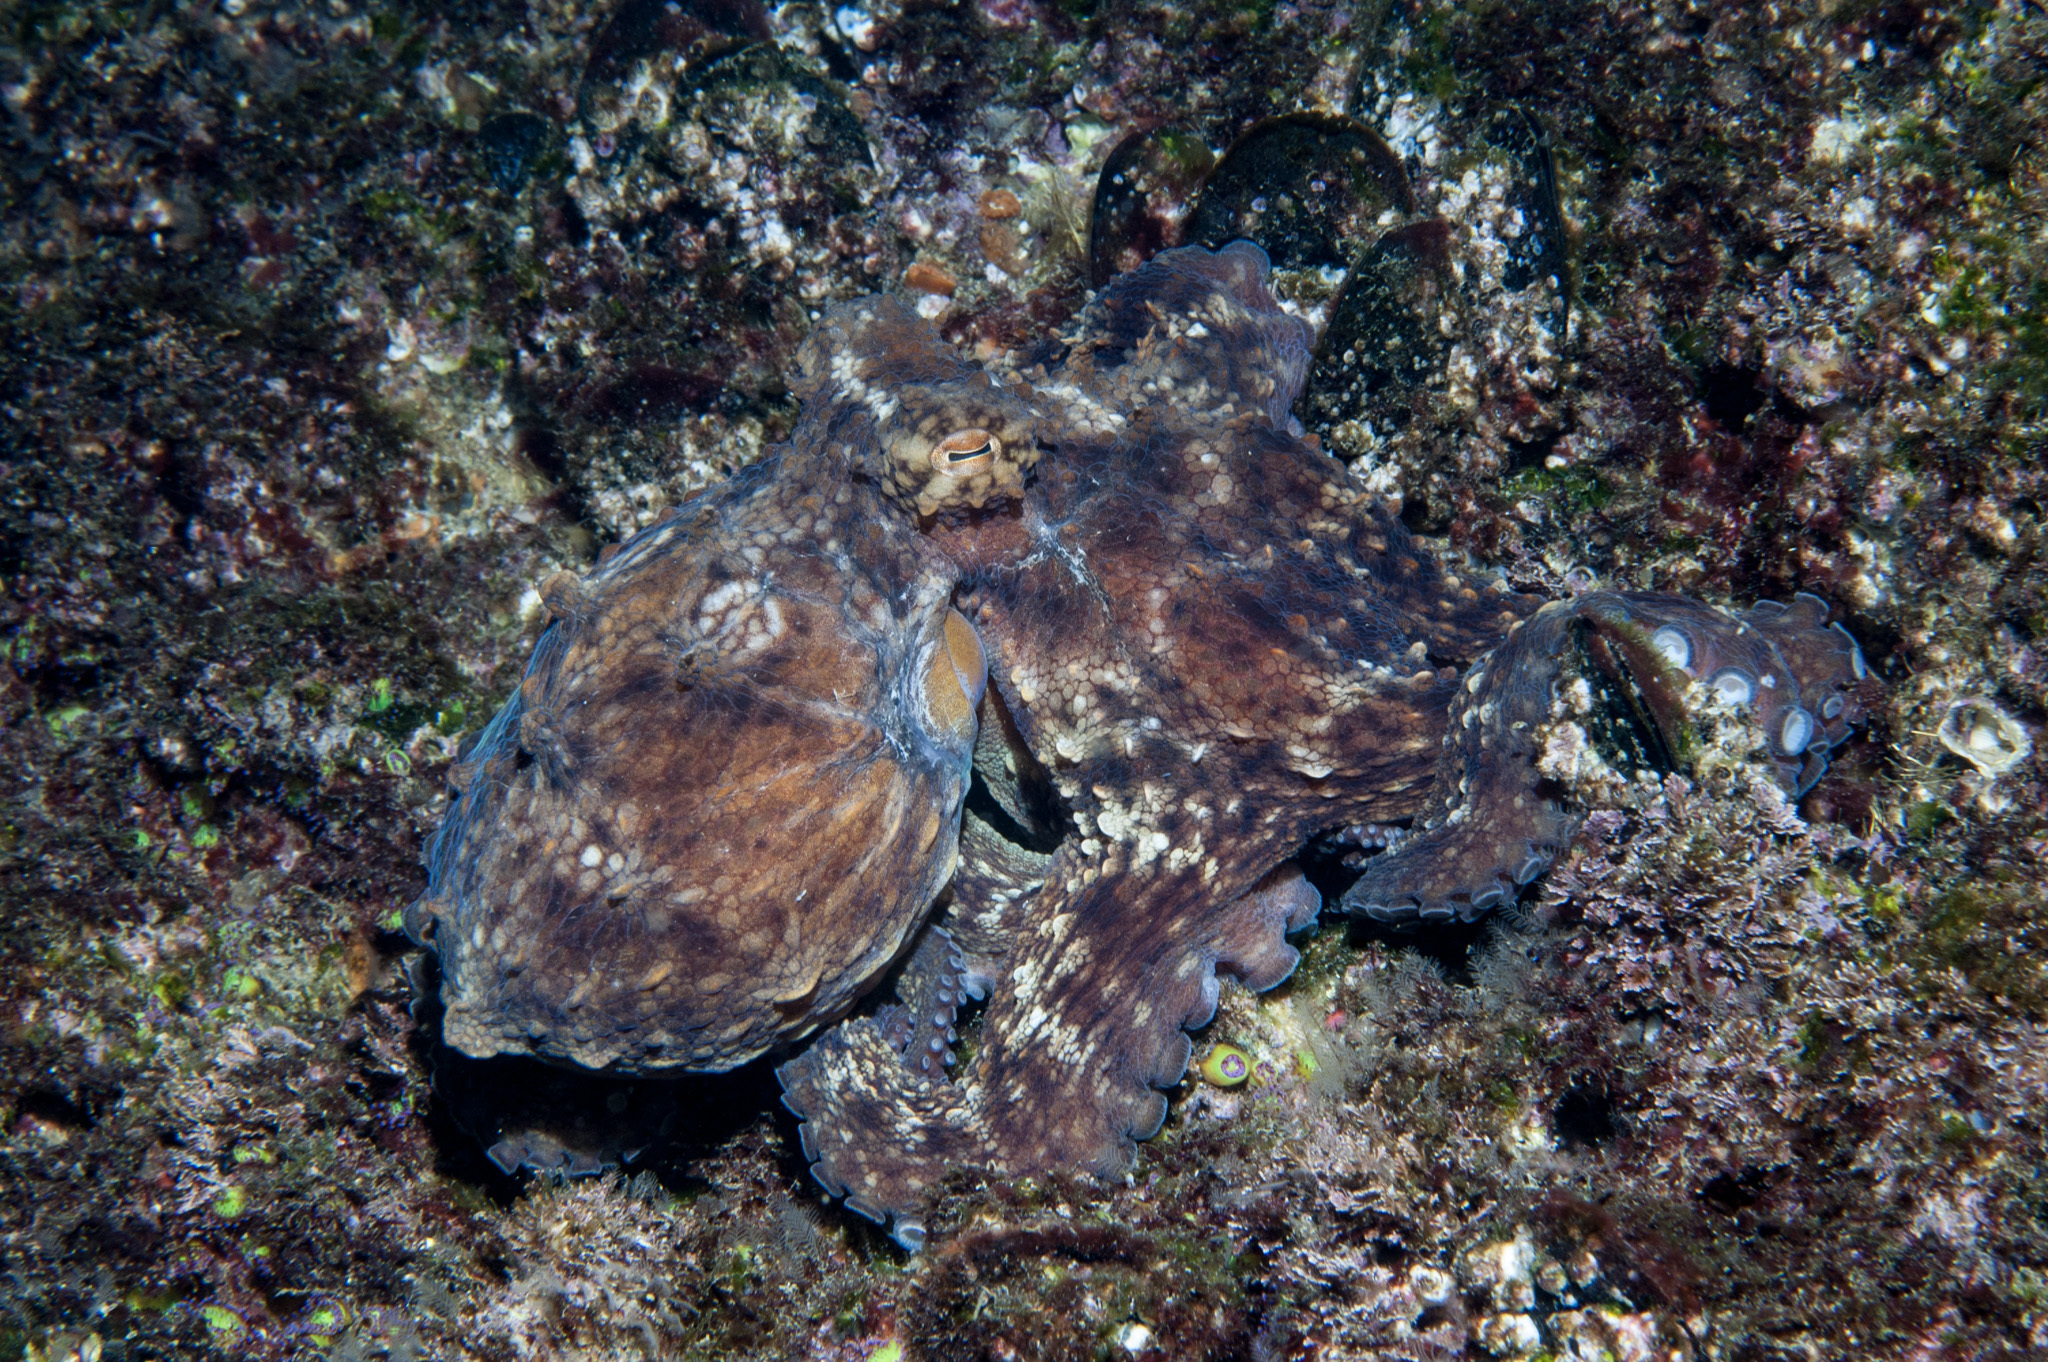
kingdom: Animalia
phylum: Mollusca
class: Cephalopoda
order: Octopoda
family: Octopodidae
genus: Octopus
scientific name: Octopus vulgaris
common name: Common octopus
